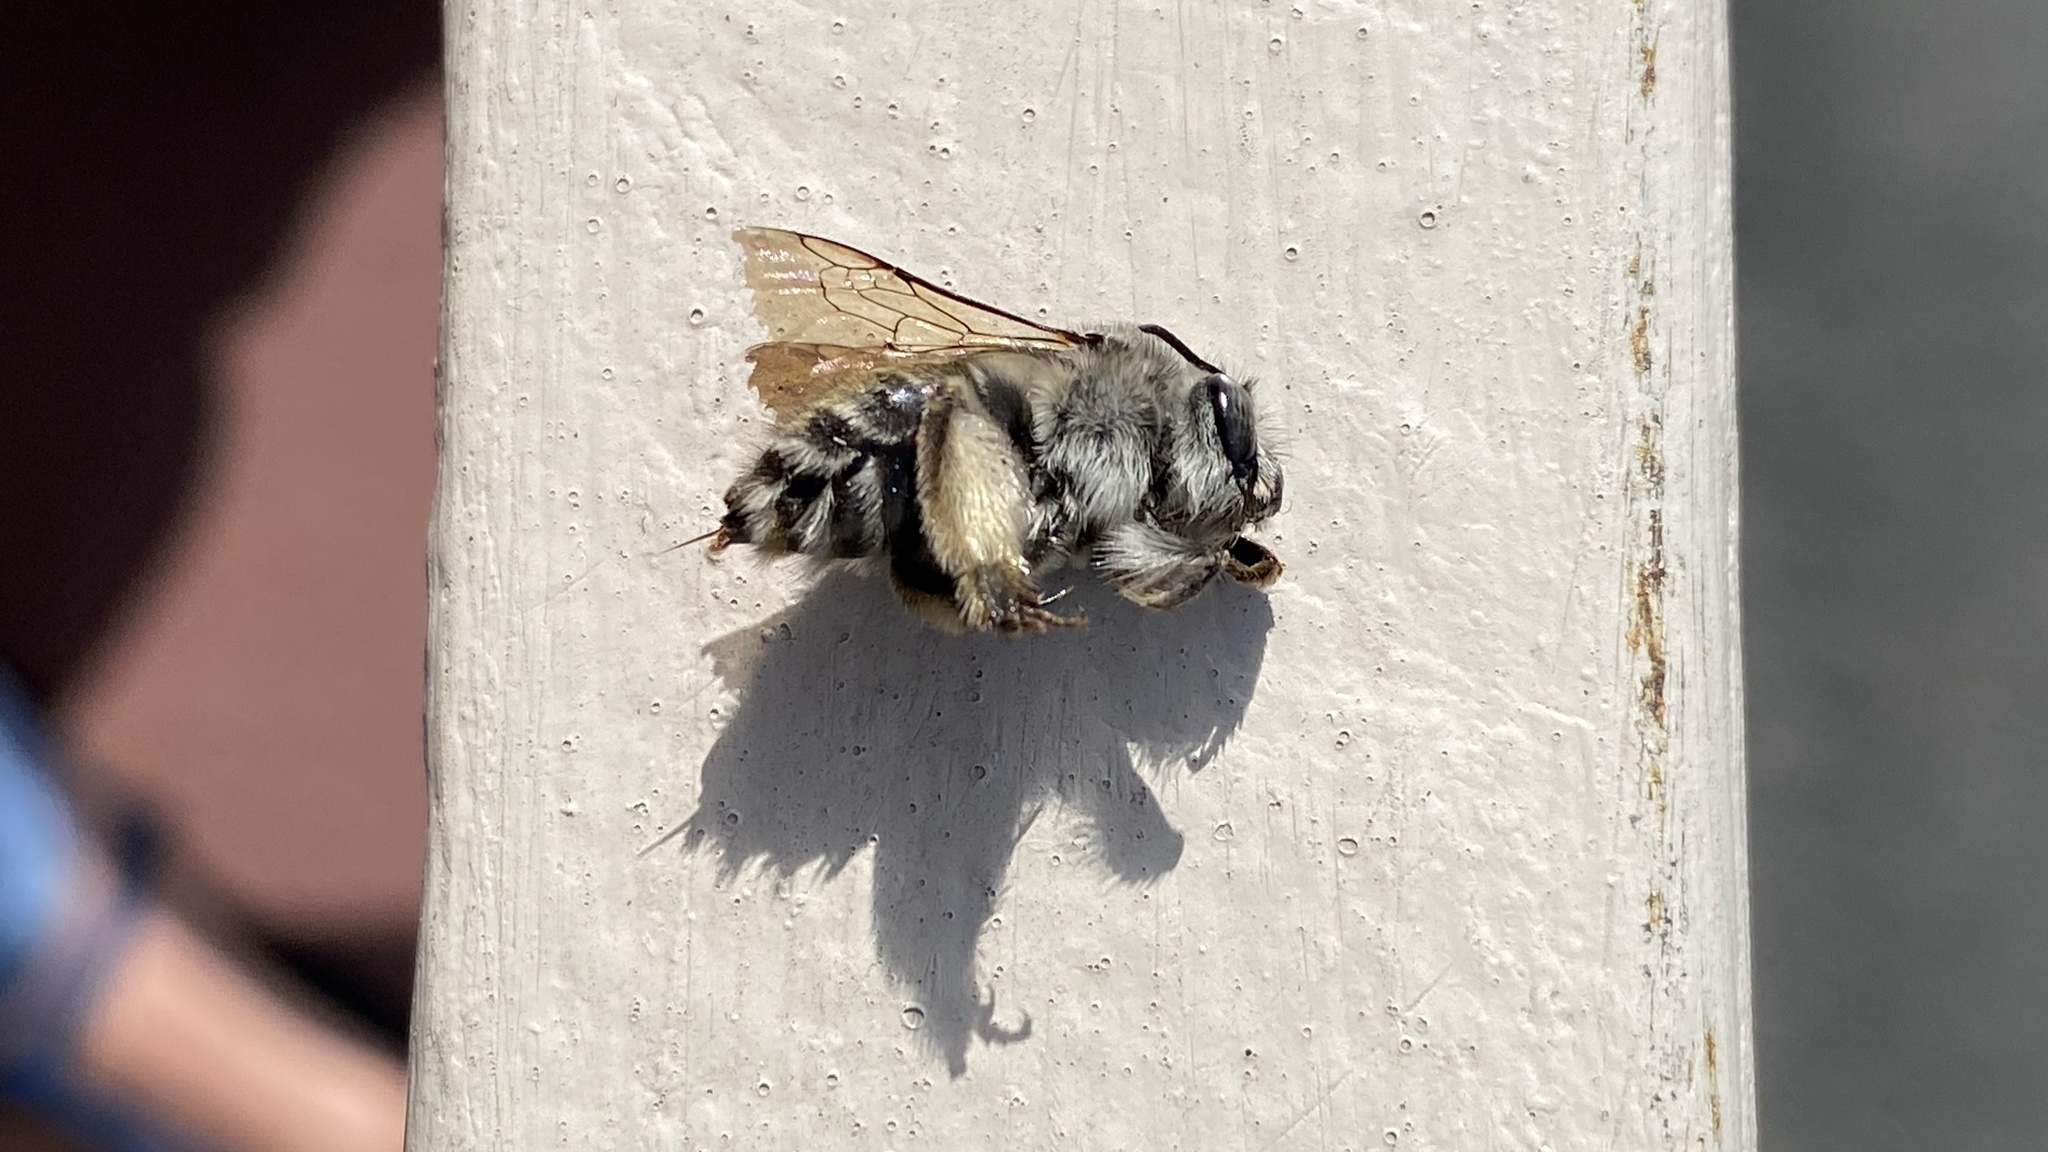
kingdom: Animalia
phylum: Arthropoda
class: Insecta
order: Hymenoptera
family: Apidae
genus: Habropoda
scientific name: Habropoda depressa
